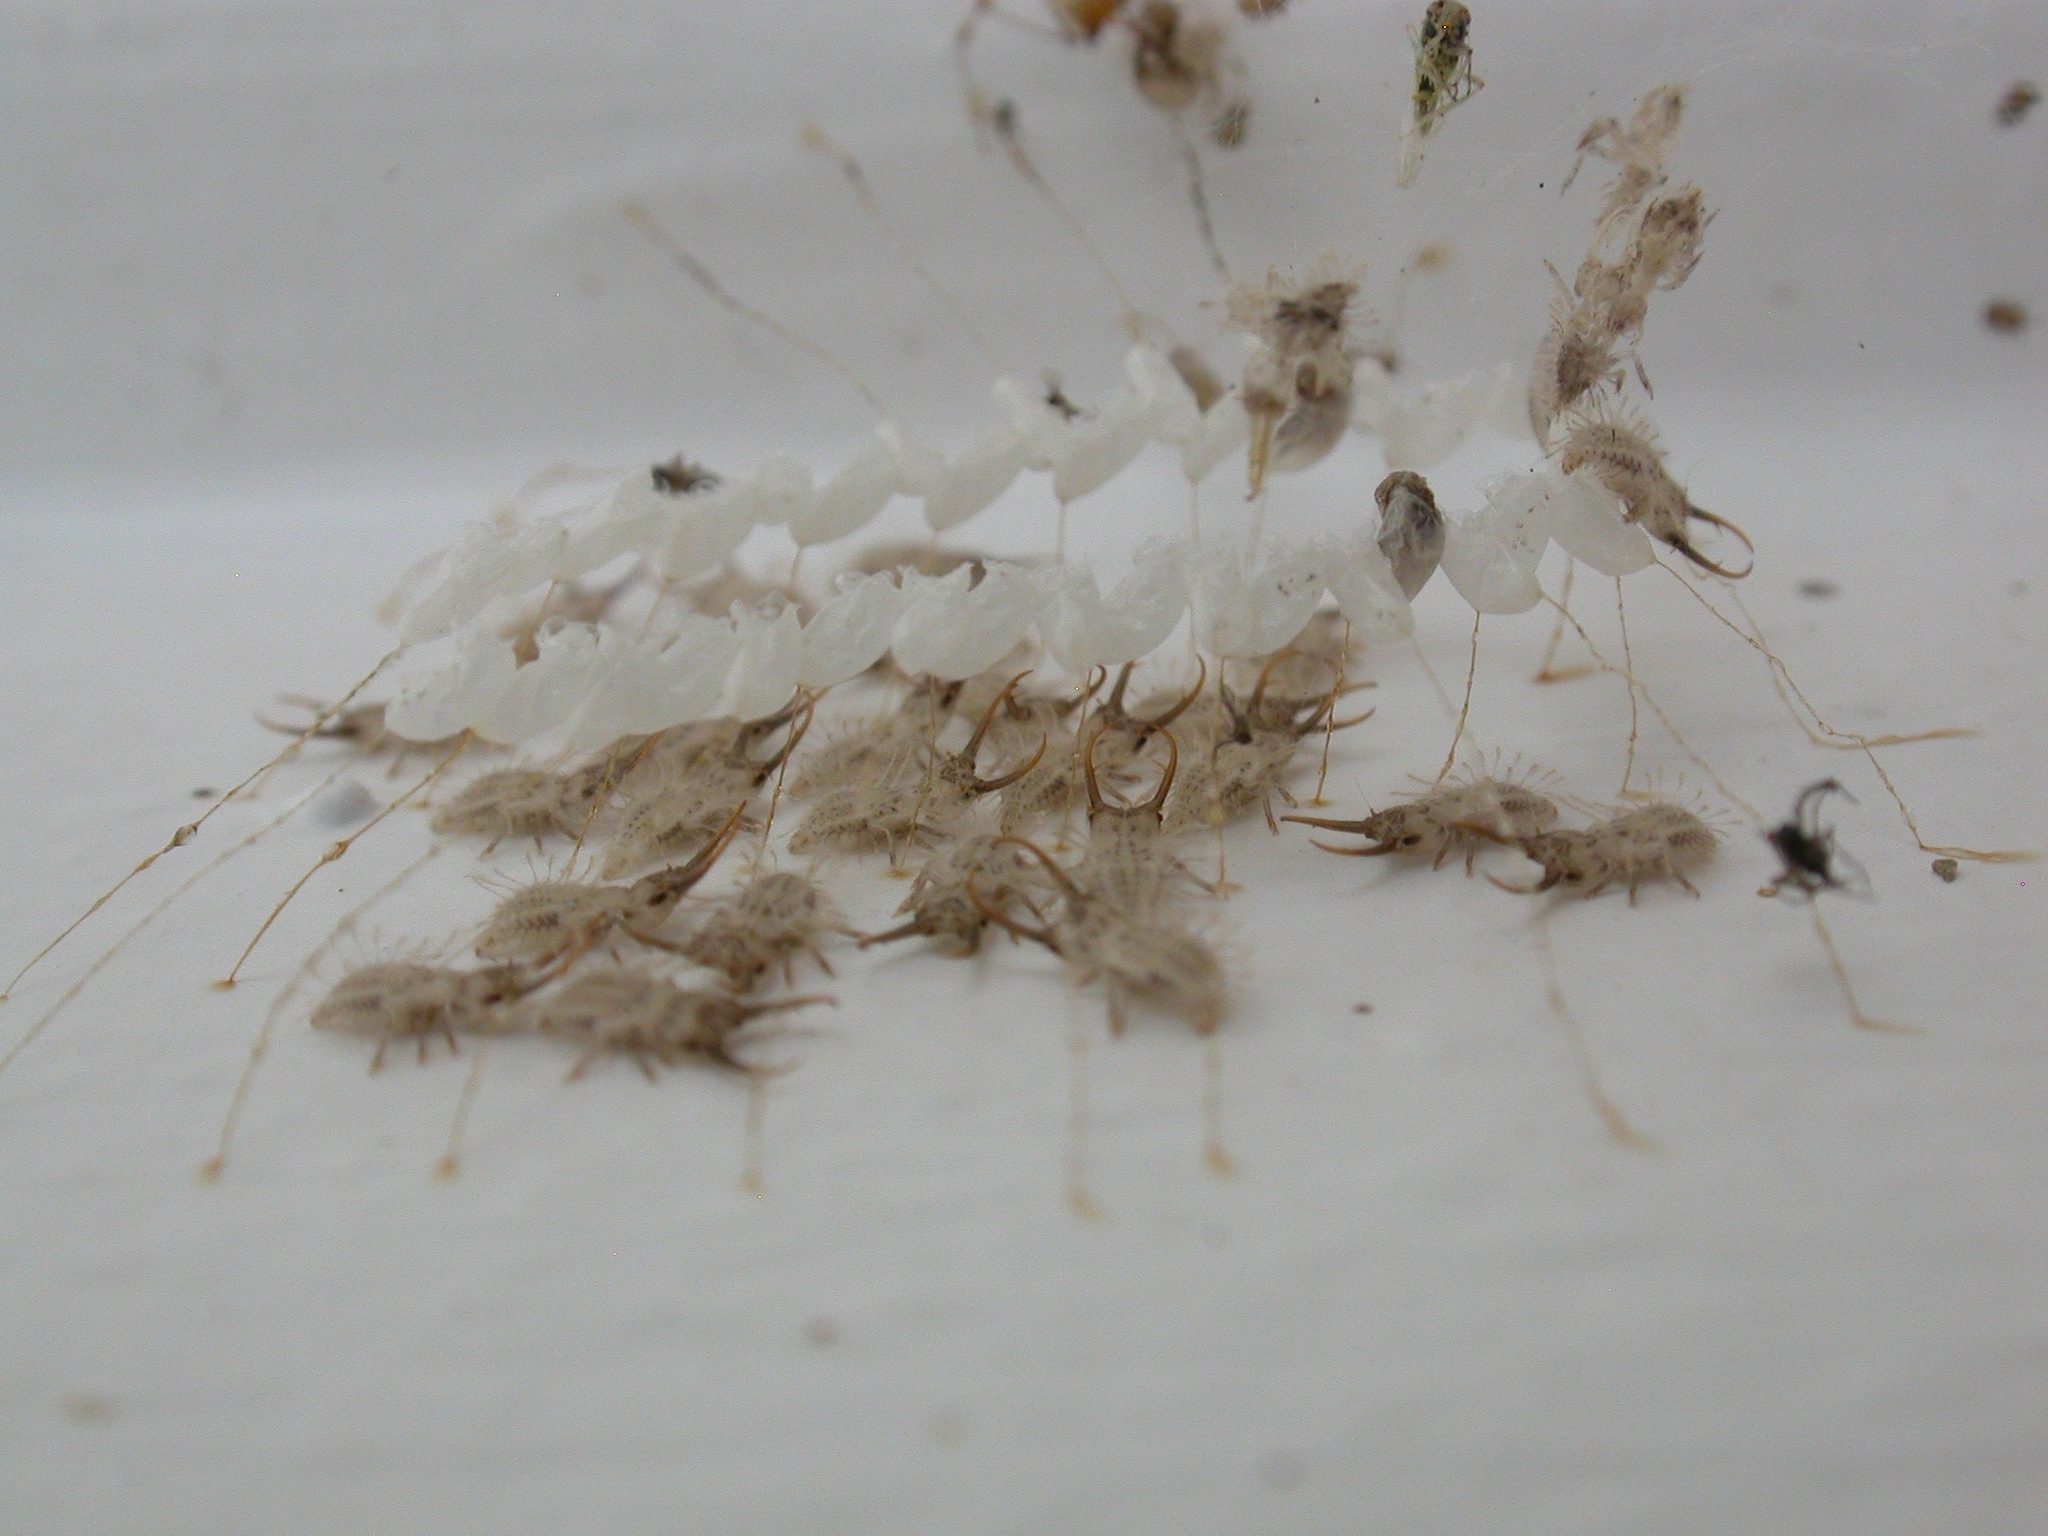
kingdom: Animalia
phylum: Arthropoda
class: Insecta
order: Neuroptera
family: Nymphidae
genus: Nymphes
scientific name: Nymphes myrmeleonoides
